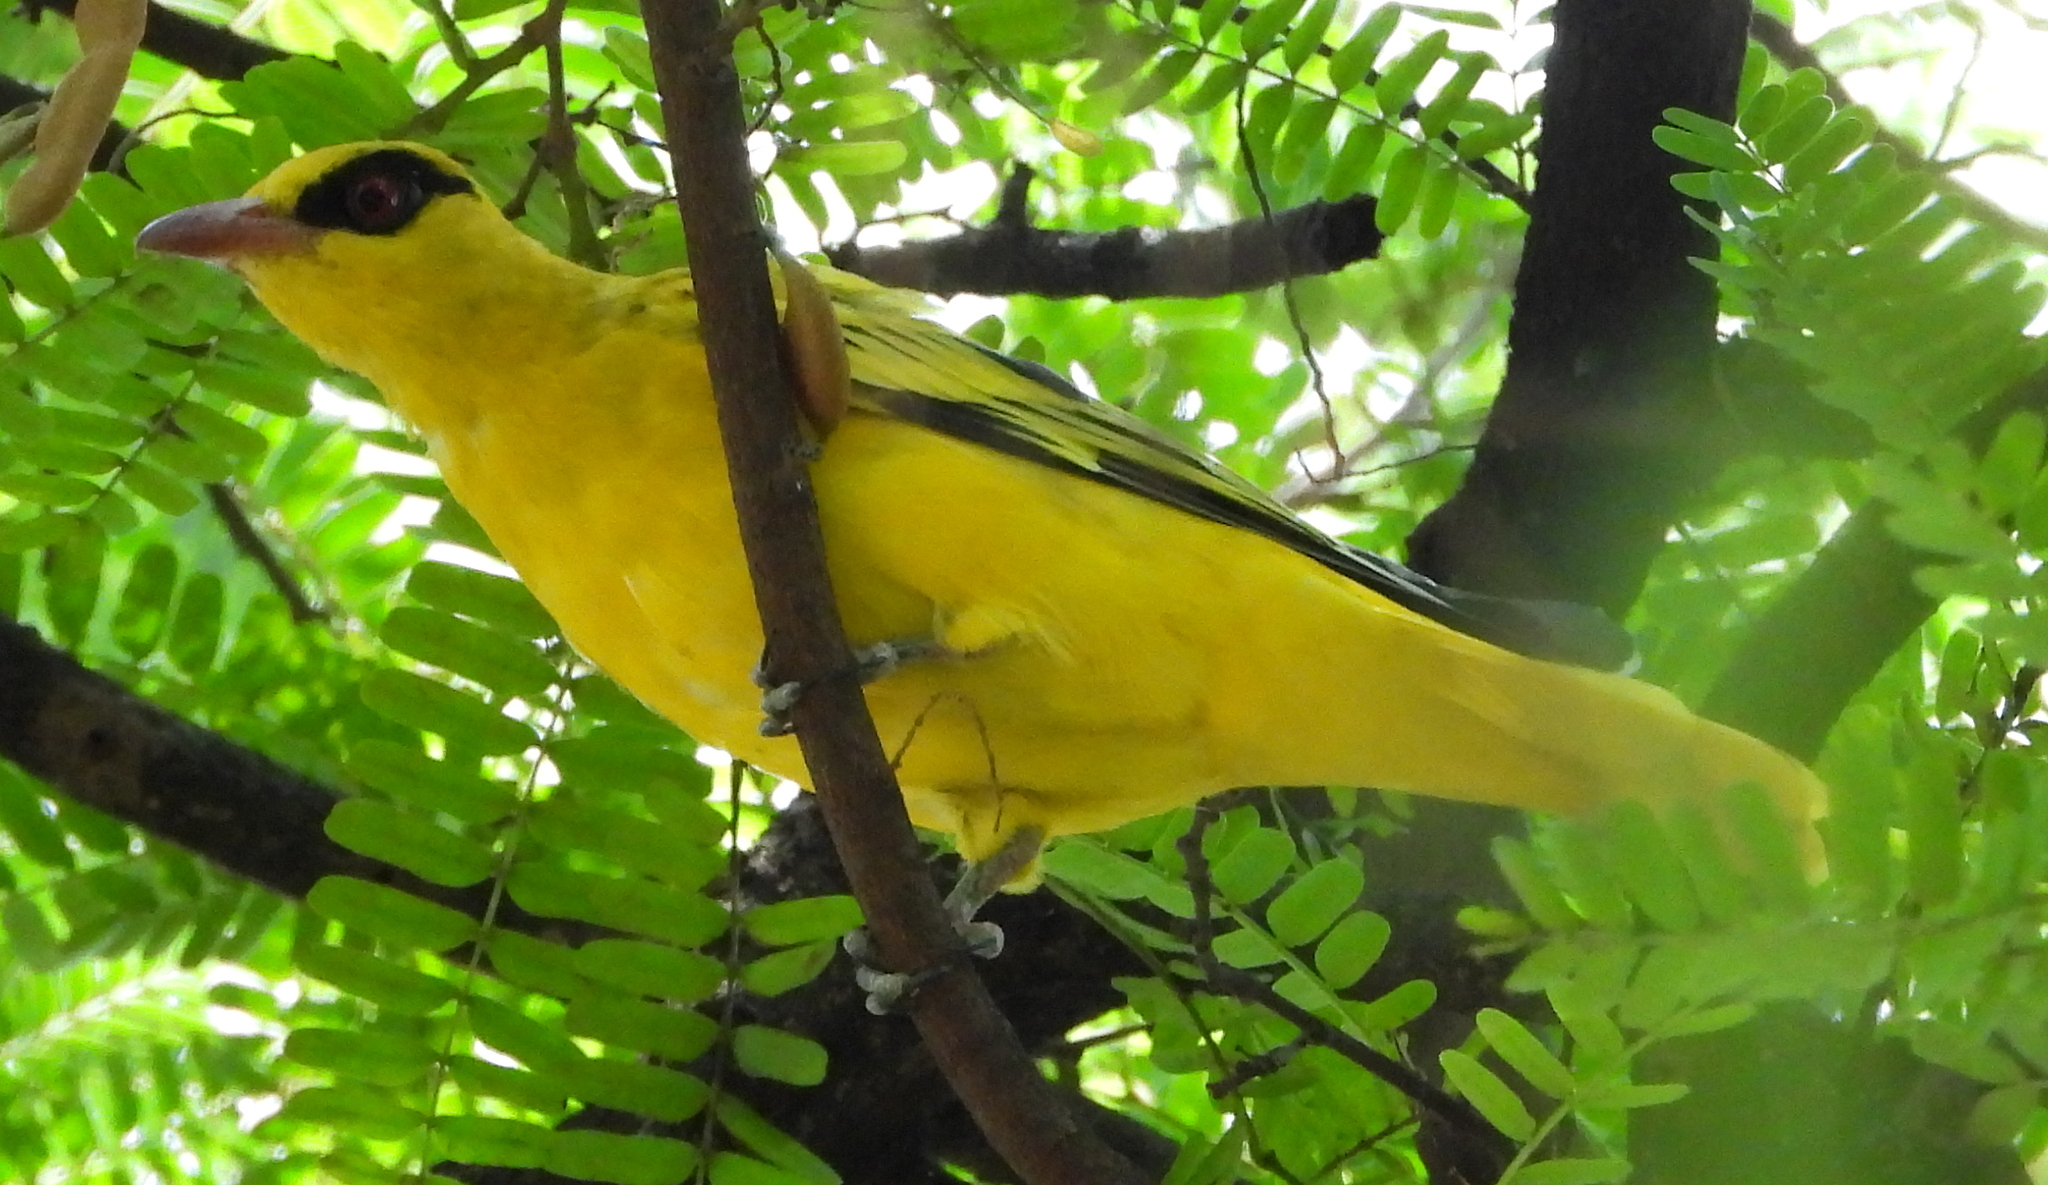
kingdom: Animalia
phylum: Chordata
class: Aves
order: Passeriformes
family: Oriolidae
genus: Oriolus
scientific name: Oriolus auratus
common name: African golden oriole
